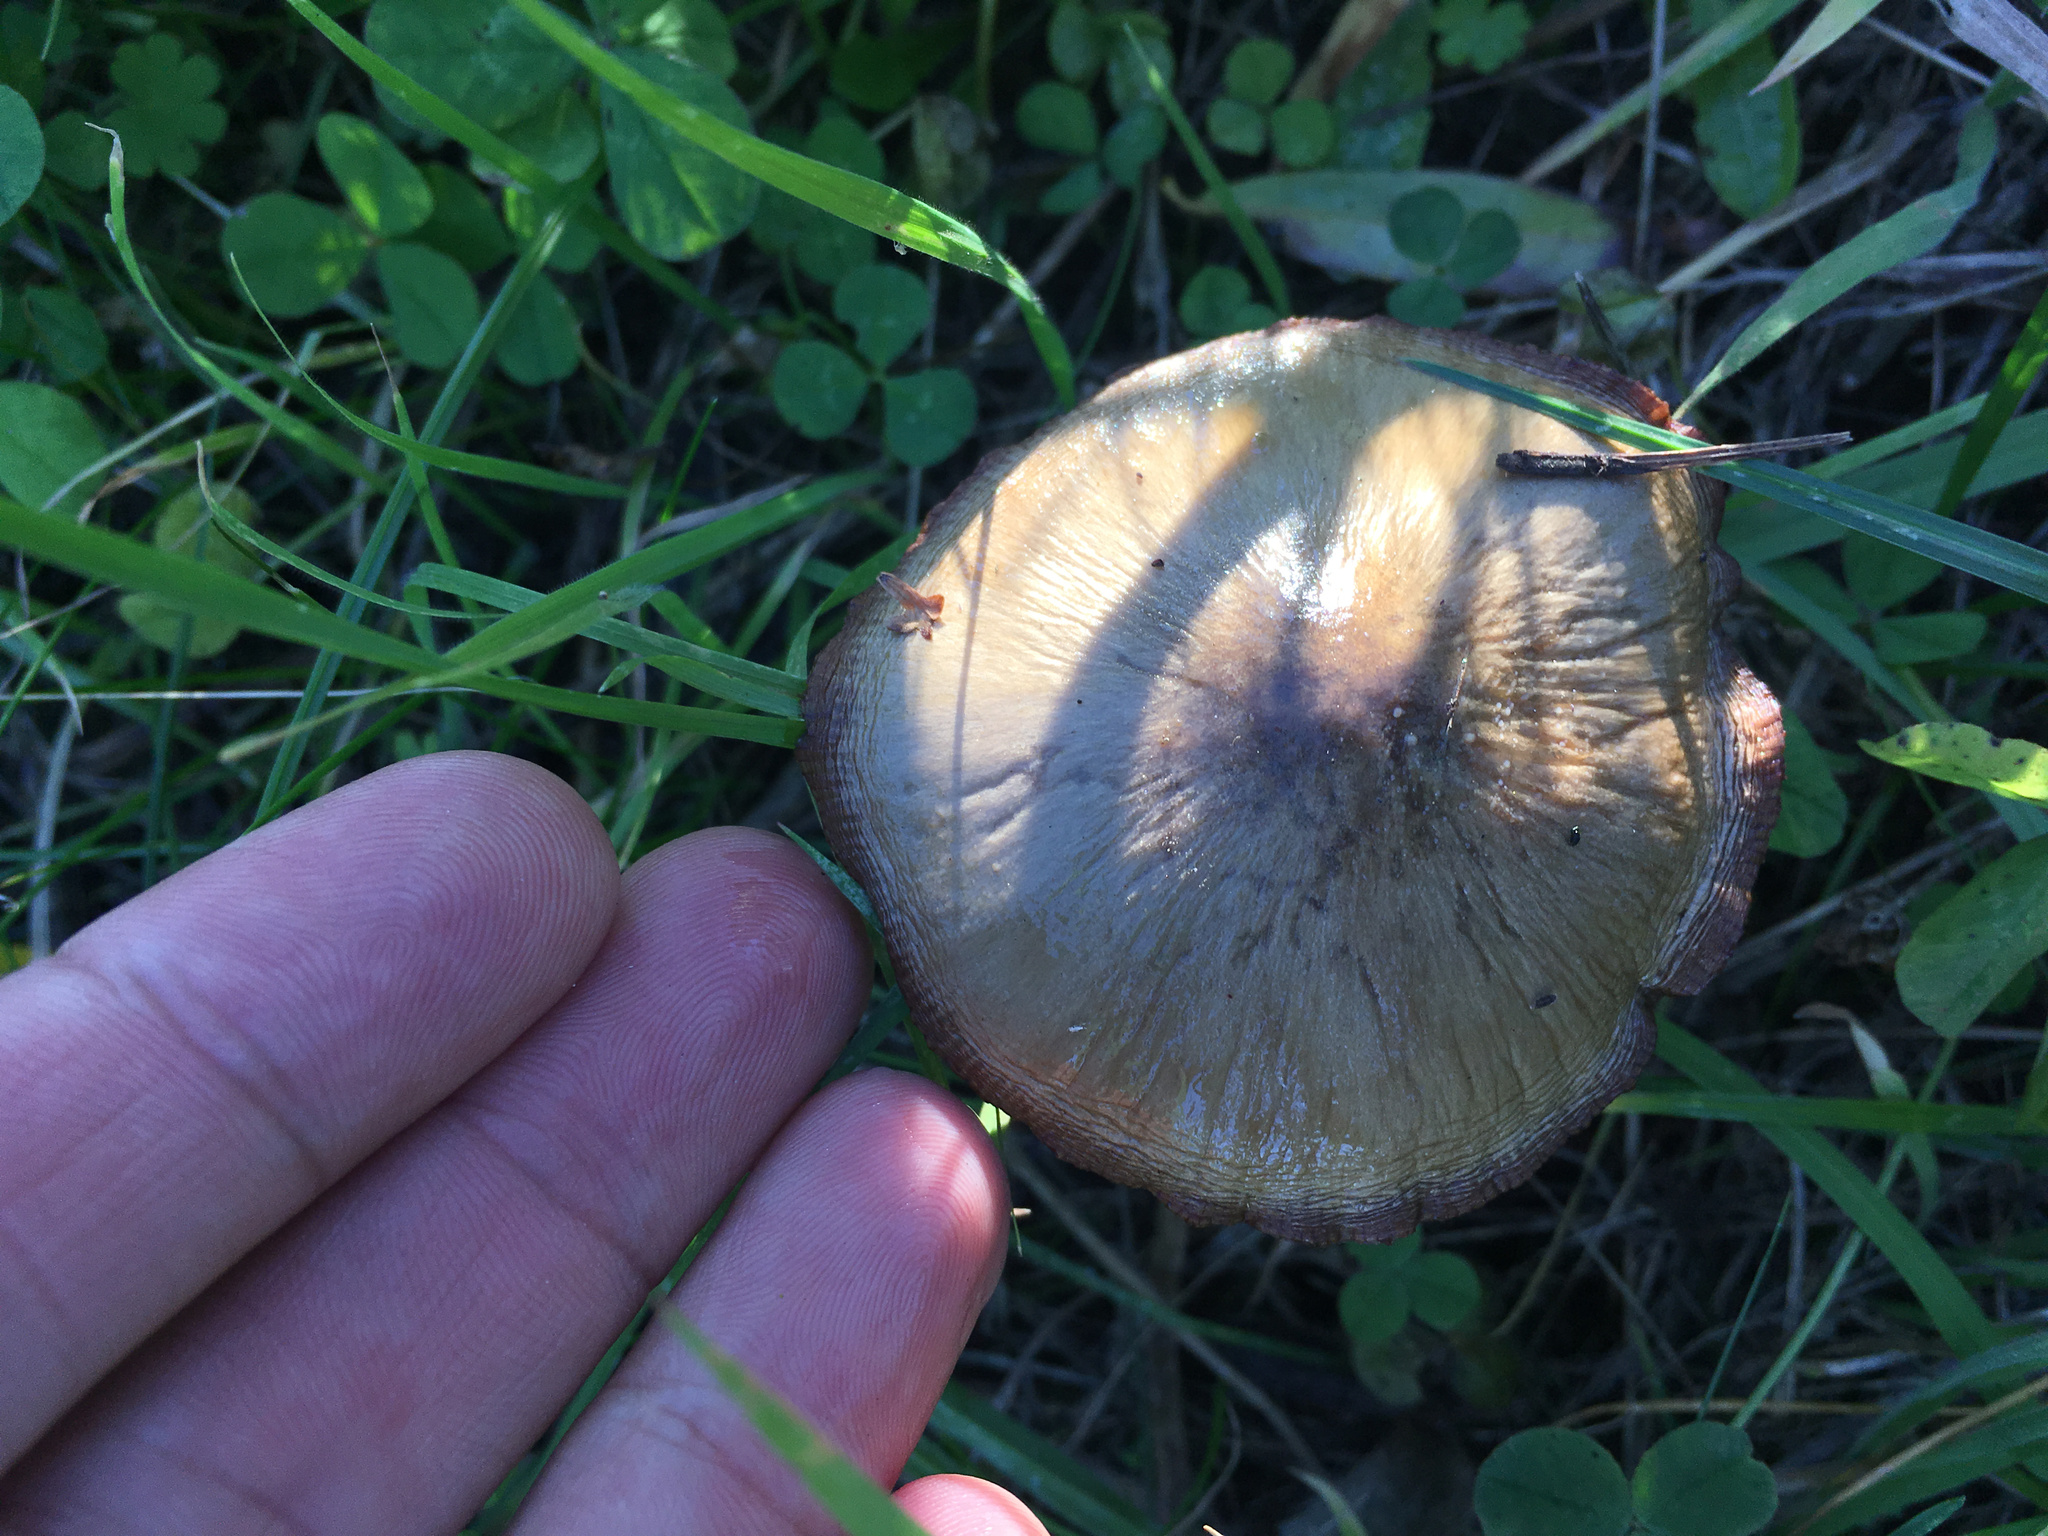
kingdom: Fungi
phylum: Basidiomycota
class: Agaricomycetes
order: Agaricales
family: Pluteaceae
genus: Volvopluteus
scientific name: Volvopluteus gloiocephalus
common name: Stubble rosegill
